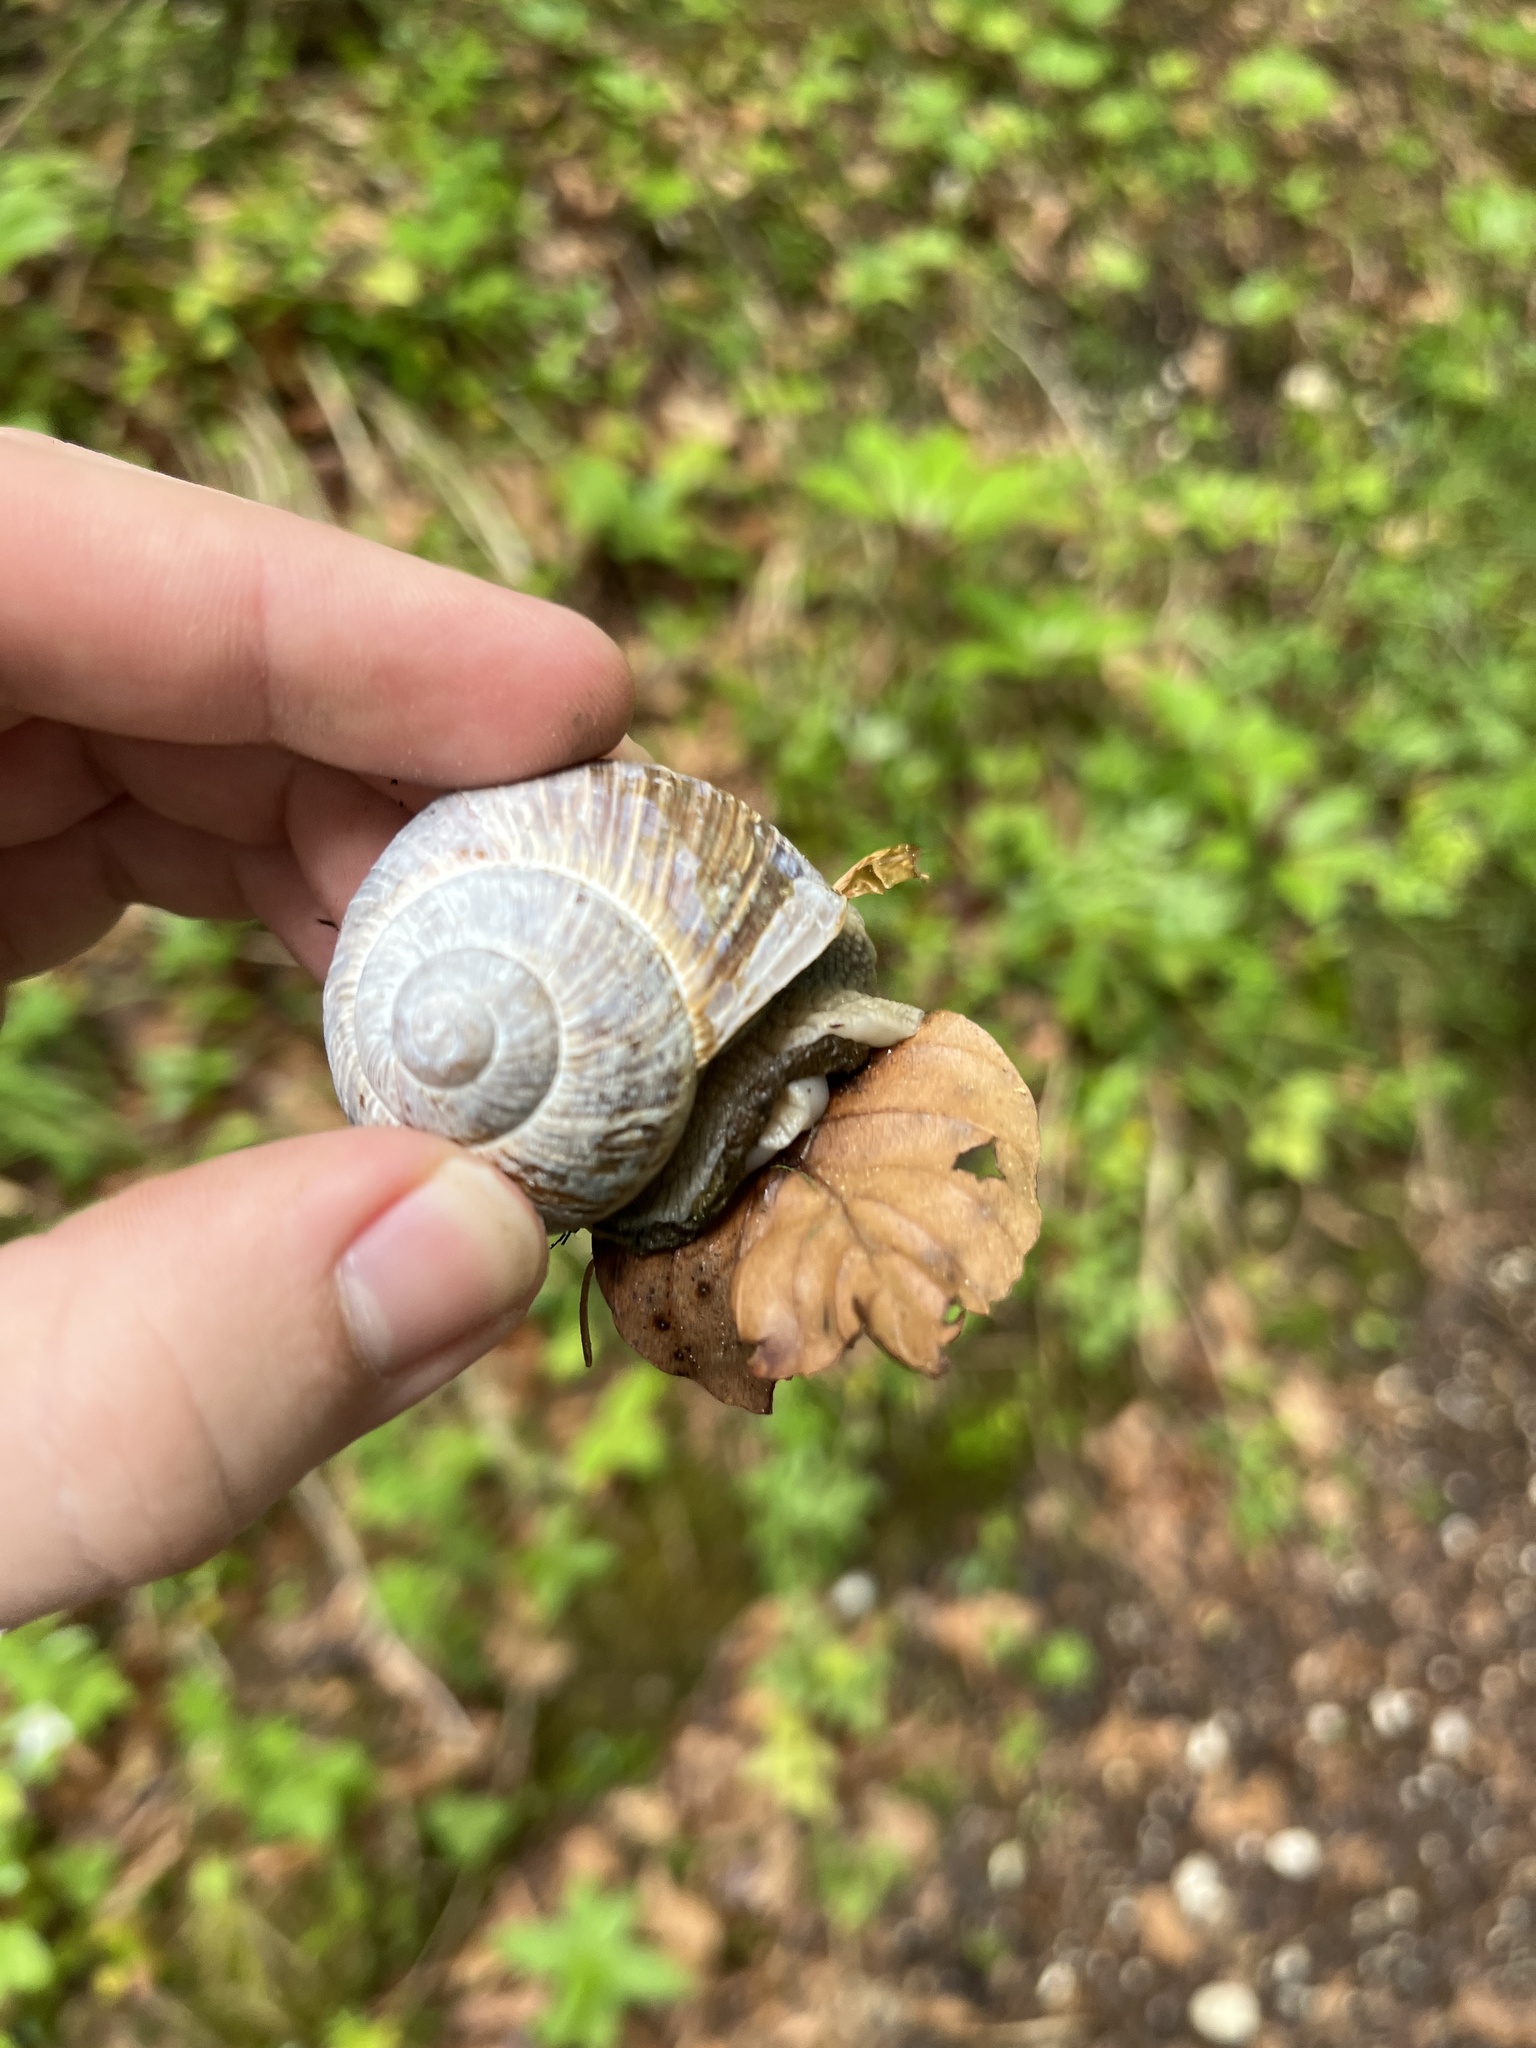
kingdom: Animalia
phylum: Mollusca
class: Gastropoda
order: Stylommatophora
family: Helicidae
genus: Helix
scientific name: Helix pomatia
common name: Roman snail
